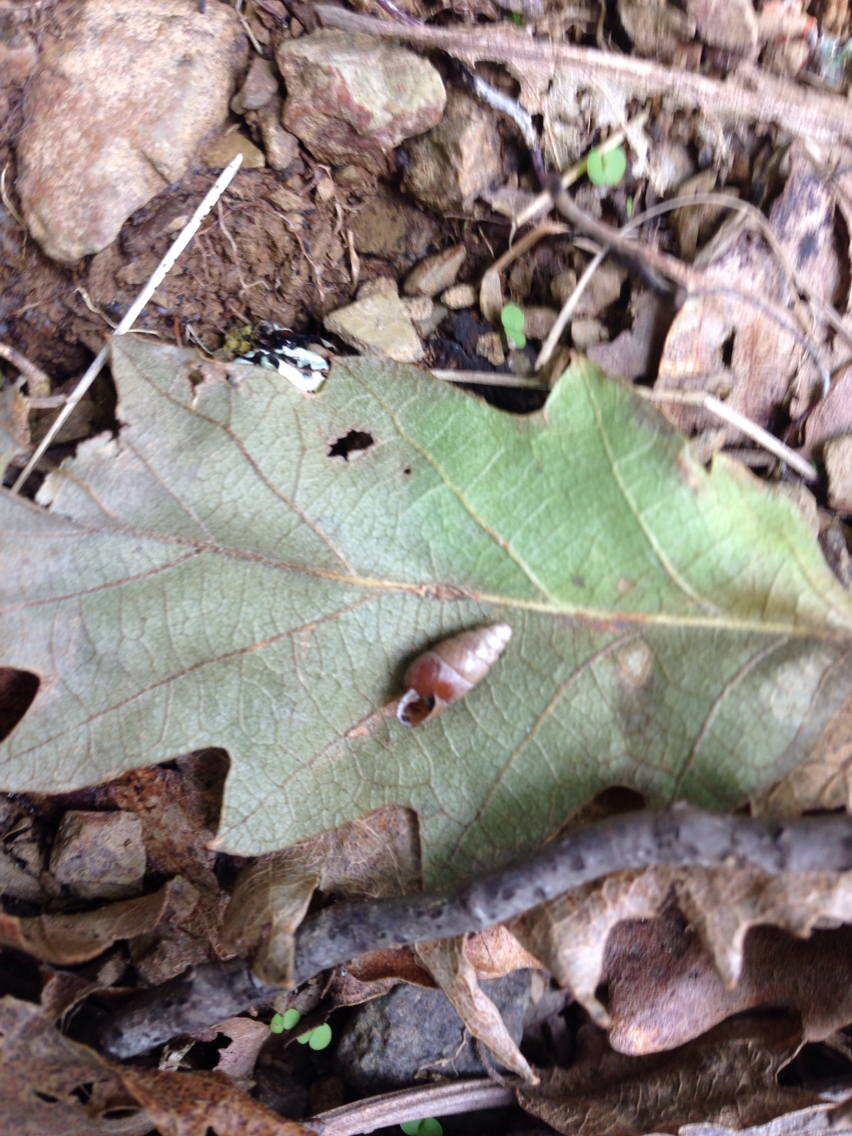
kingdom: Animalia
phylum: Mollusca
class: Gastropoda
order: Stylommatophora
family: Enidae
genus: Merdigera
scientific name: Merdigera obscura
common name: Lesser bulin
